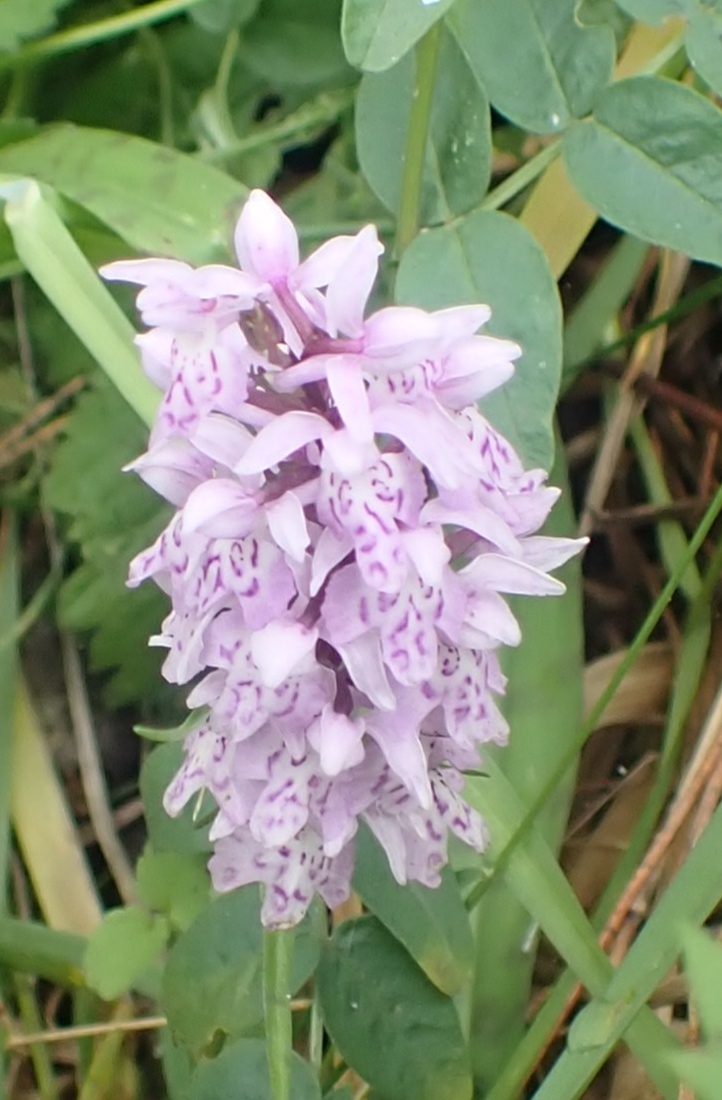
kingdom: Plantae
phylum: Tracheophyta
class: Liliopsida
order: Asparagales
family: Orchidaceae
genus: Dactylorhiza
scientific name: Dactylorhiza maculata
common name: Heath spotted-orchid
